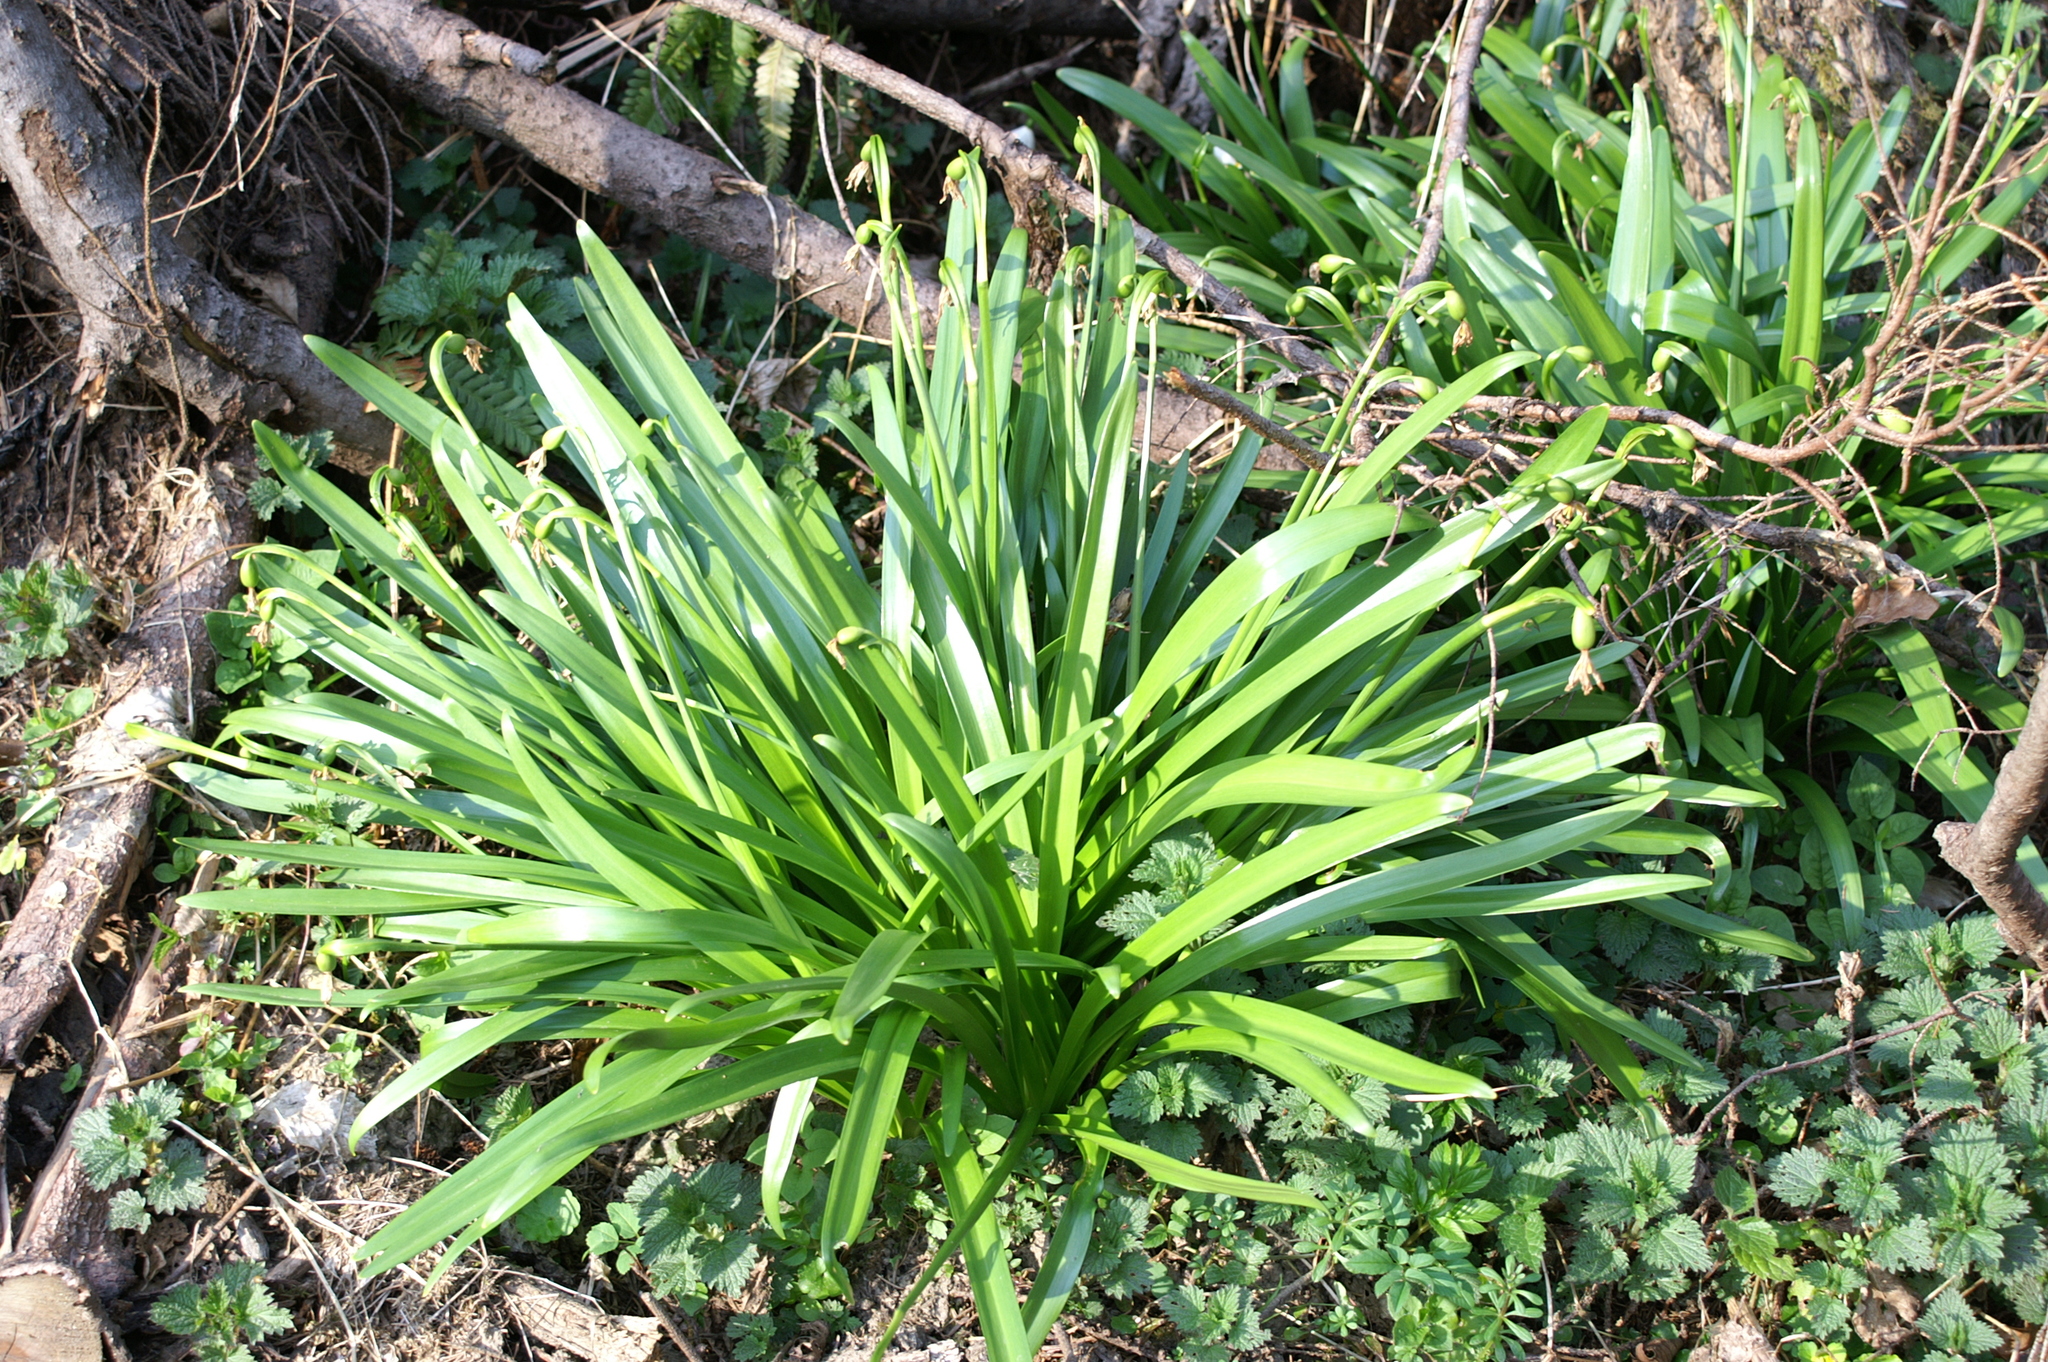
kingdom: Plantae
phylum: Tracheophyta
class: Liliopsida
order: Asparagales
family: Amaryllidaceae
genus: Leucojum
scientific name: Leucojum vernum
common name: Spring snowflake
